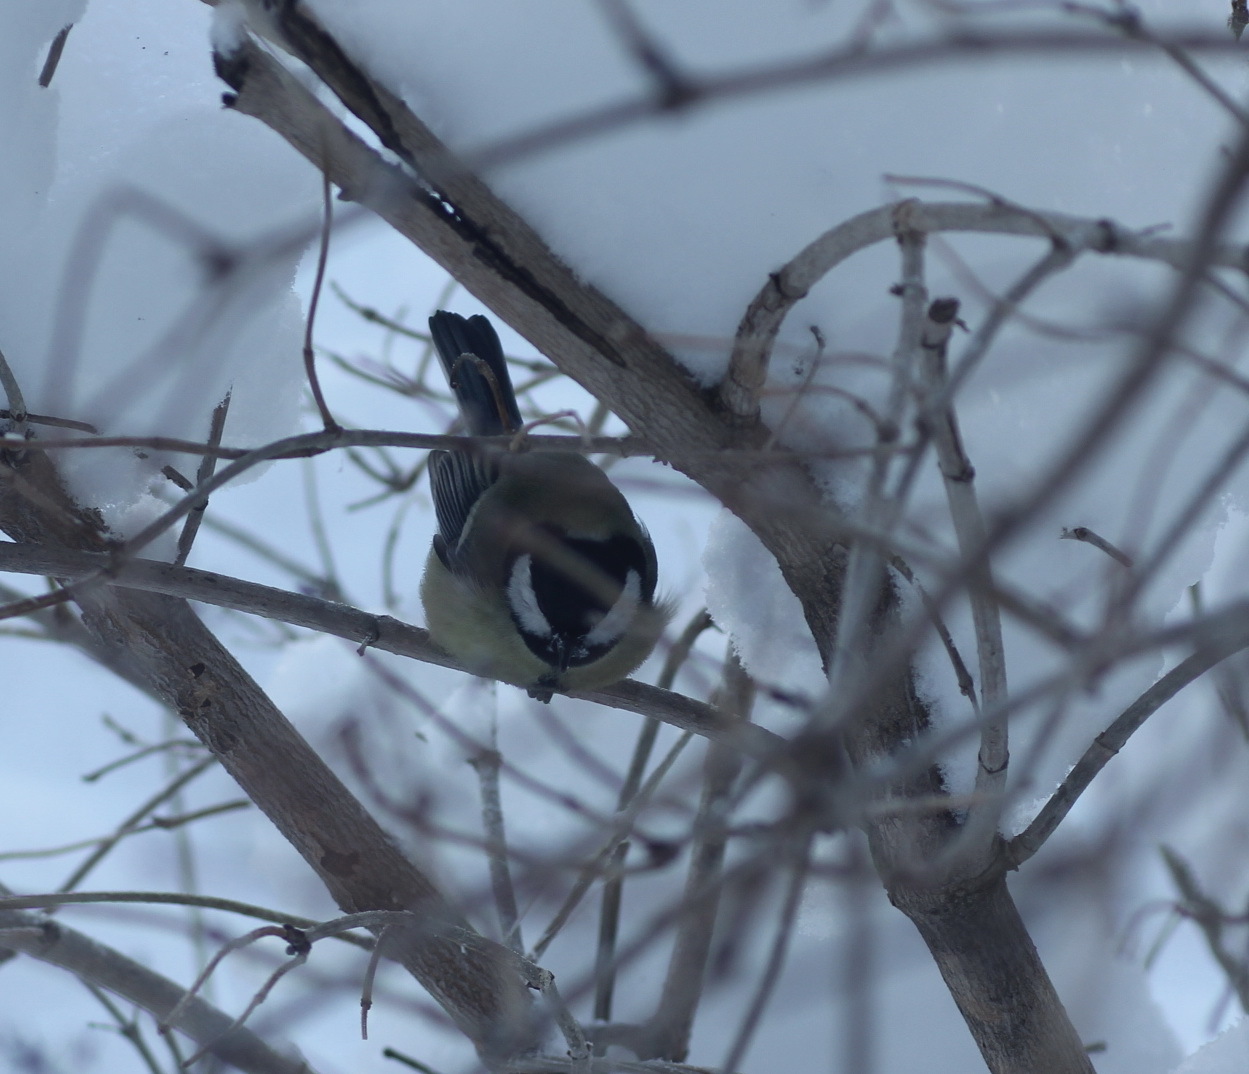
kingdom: Animalia
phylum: Chordata
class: Aves
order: Passeriformes
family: Paridae
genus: Parus
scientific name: Parus major
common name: Great tit
